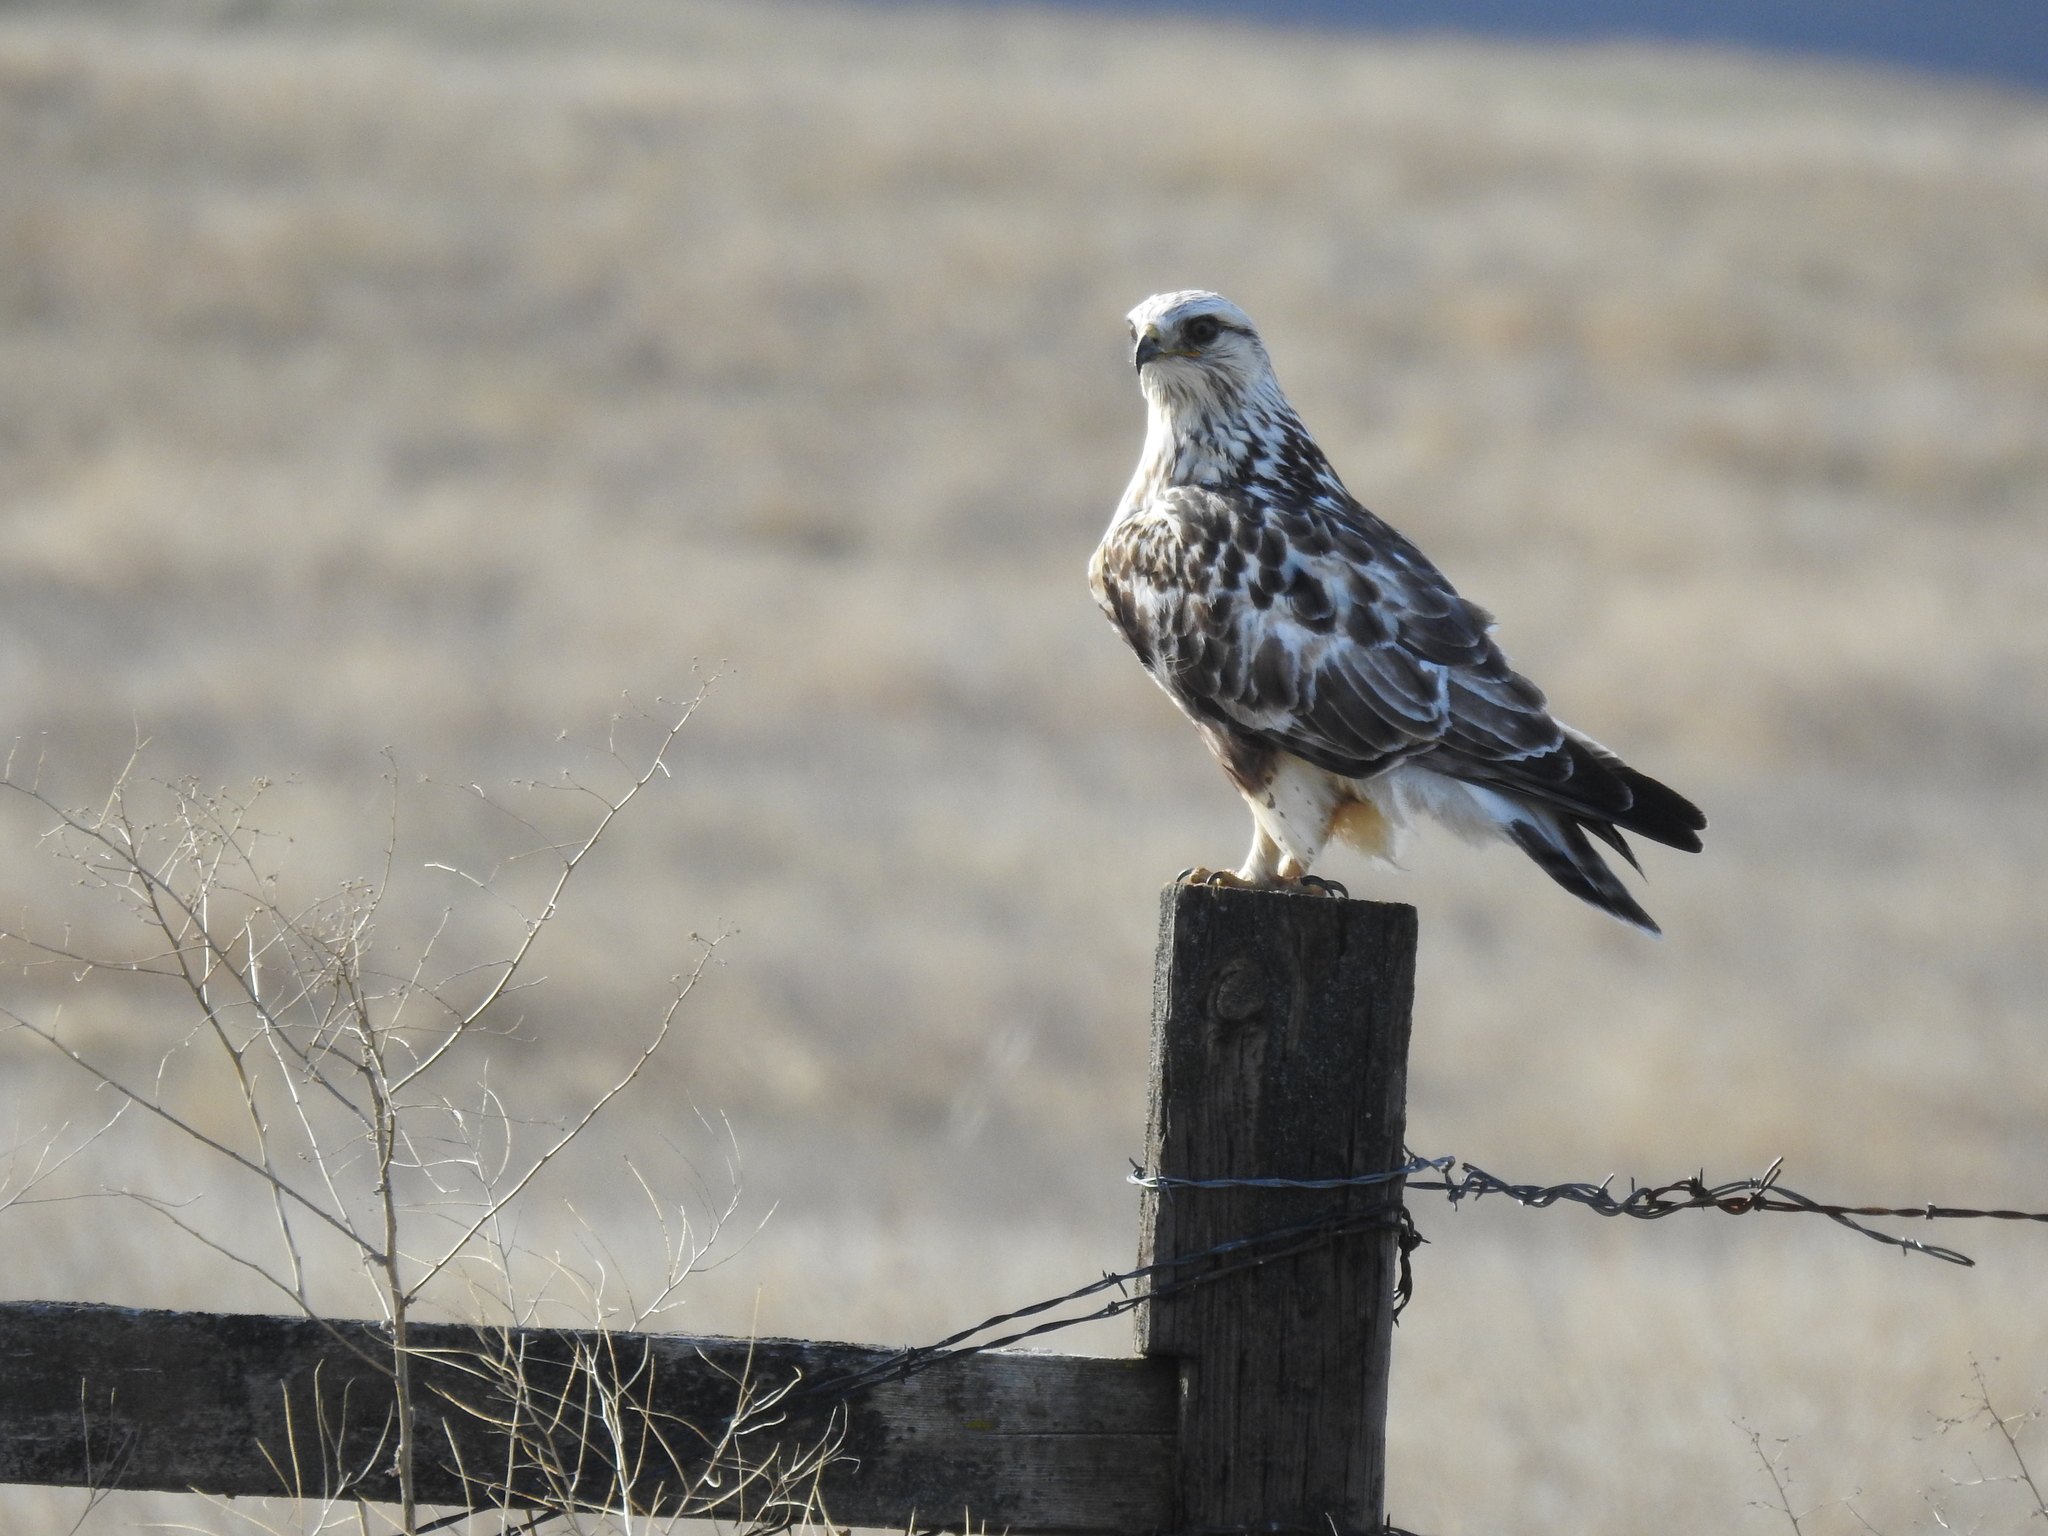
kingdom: Animalia
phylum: Chordata
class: Aves
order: Accipitriformes
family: Accipitridae
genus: Buteo
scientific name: Buteo lagopus
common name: Rough-legged buzzard
